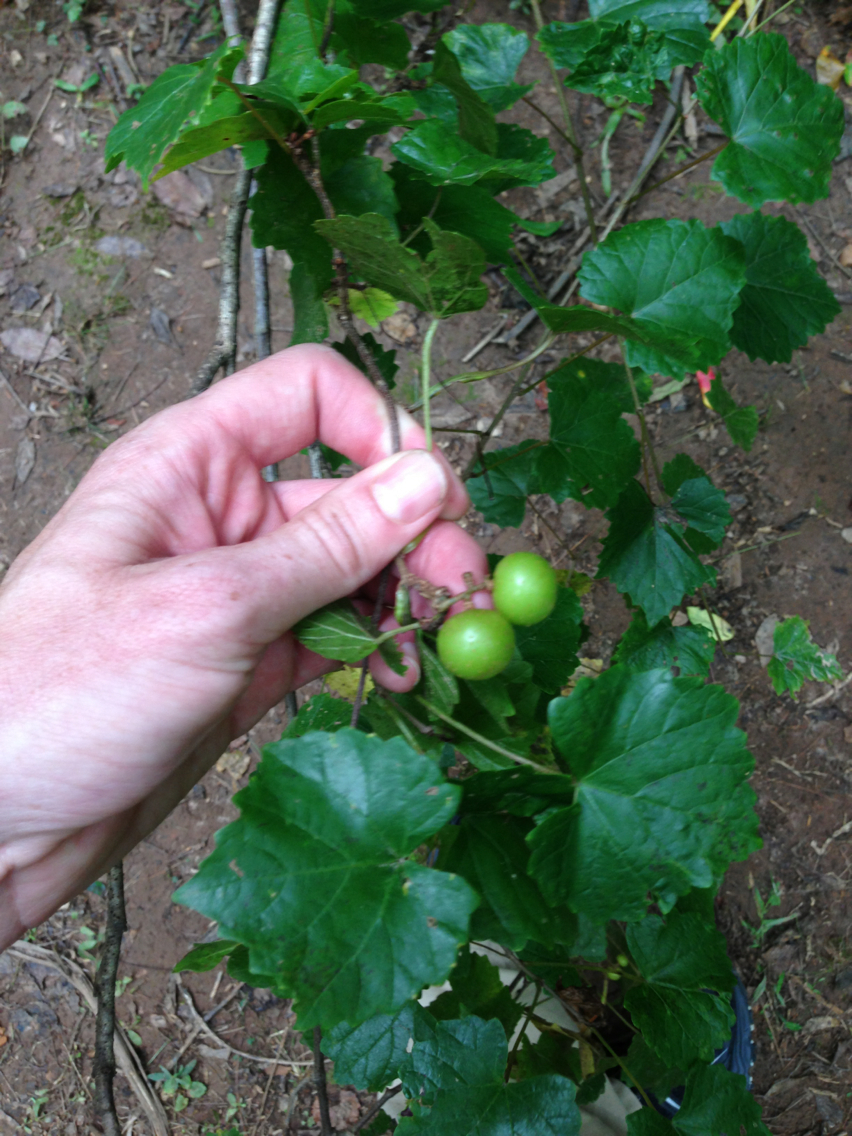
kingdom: Plantae
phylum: Tracheophyta
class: Magnoliopsida
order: Vitales
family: Vitaceae
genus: Vitis
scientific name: Vitis rotundifolia
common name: Muscadine grape
